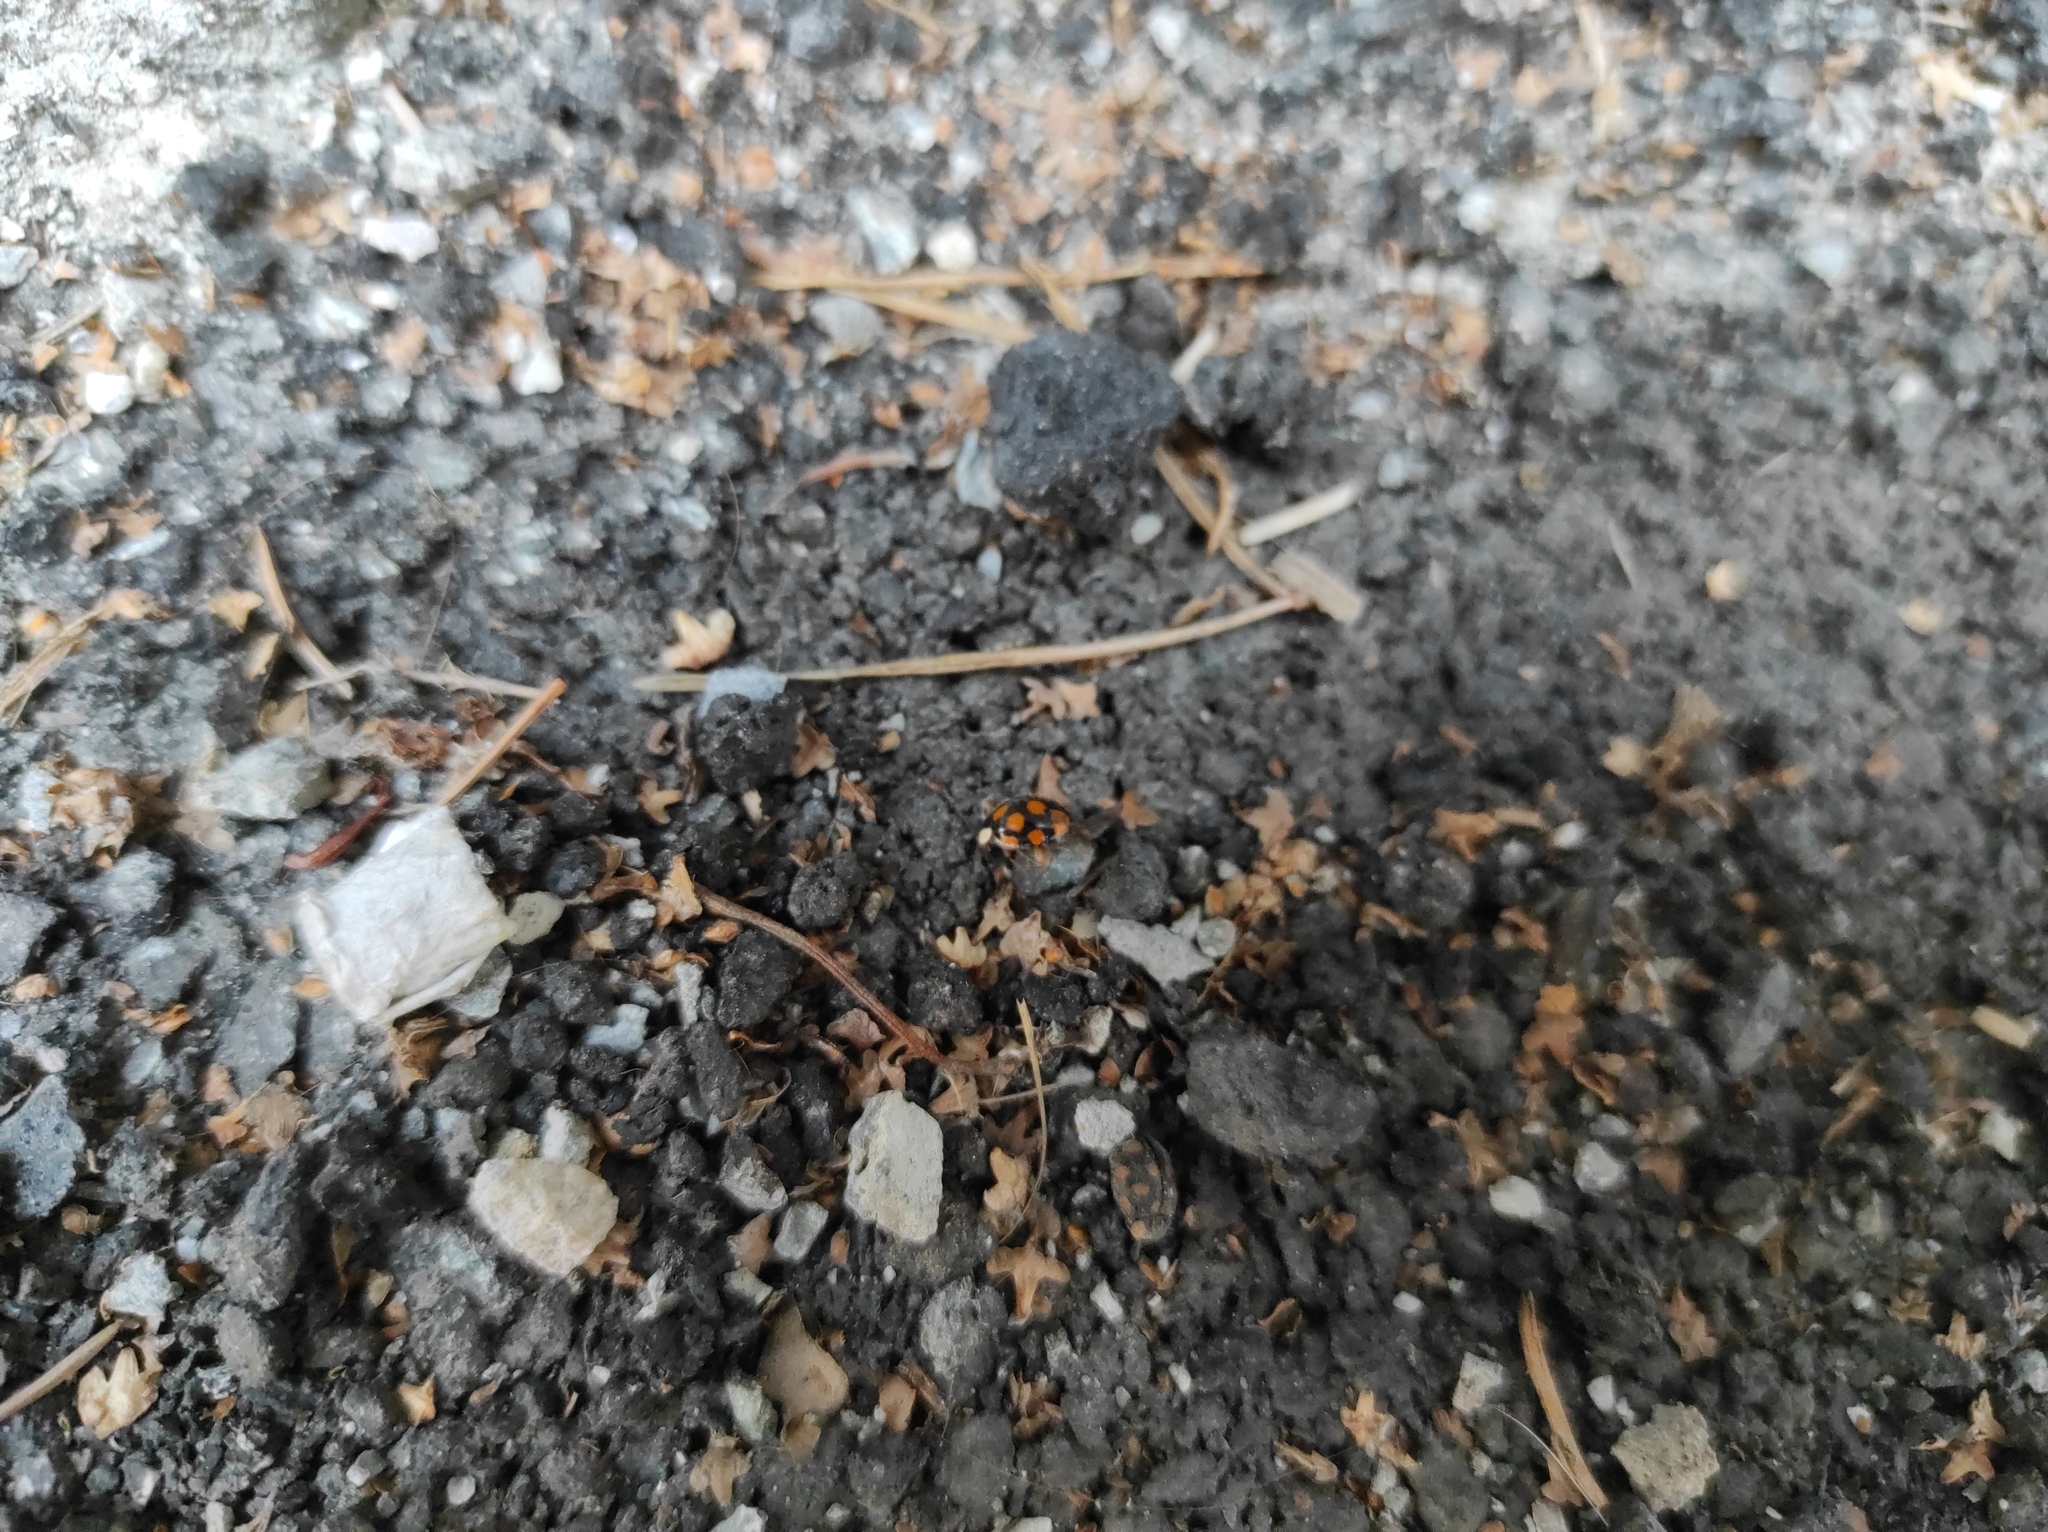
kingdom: Animalia
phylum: Arthropoda
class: Insecta
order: Coleoptera
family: Coccinellidae
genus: Harmonia
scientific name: Harmonia axyridis
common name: Harlequin ladybird
